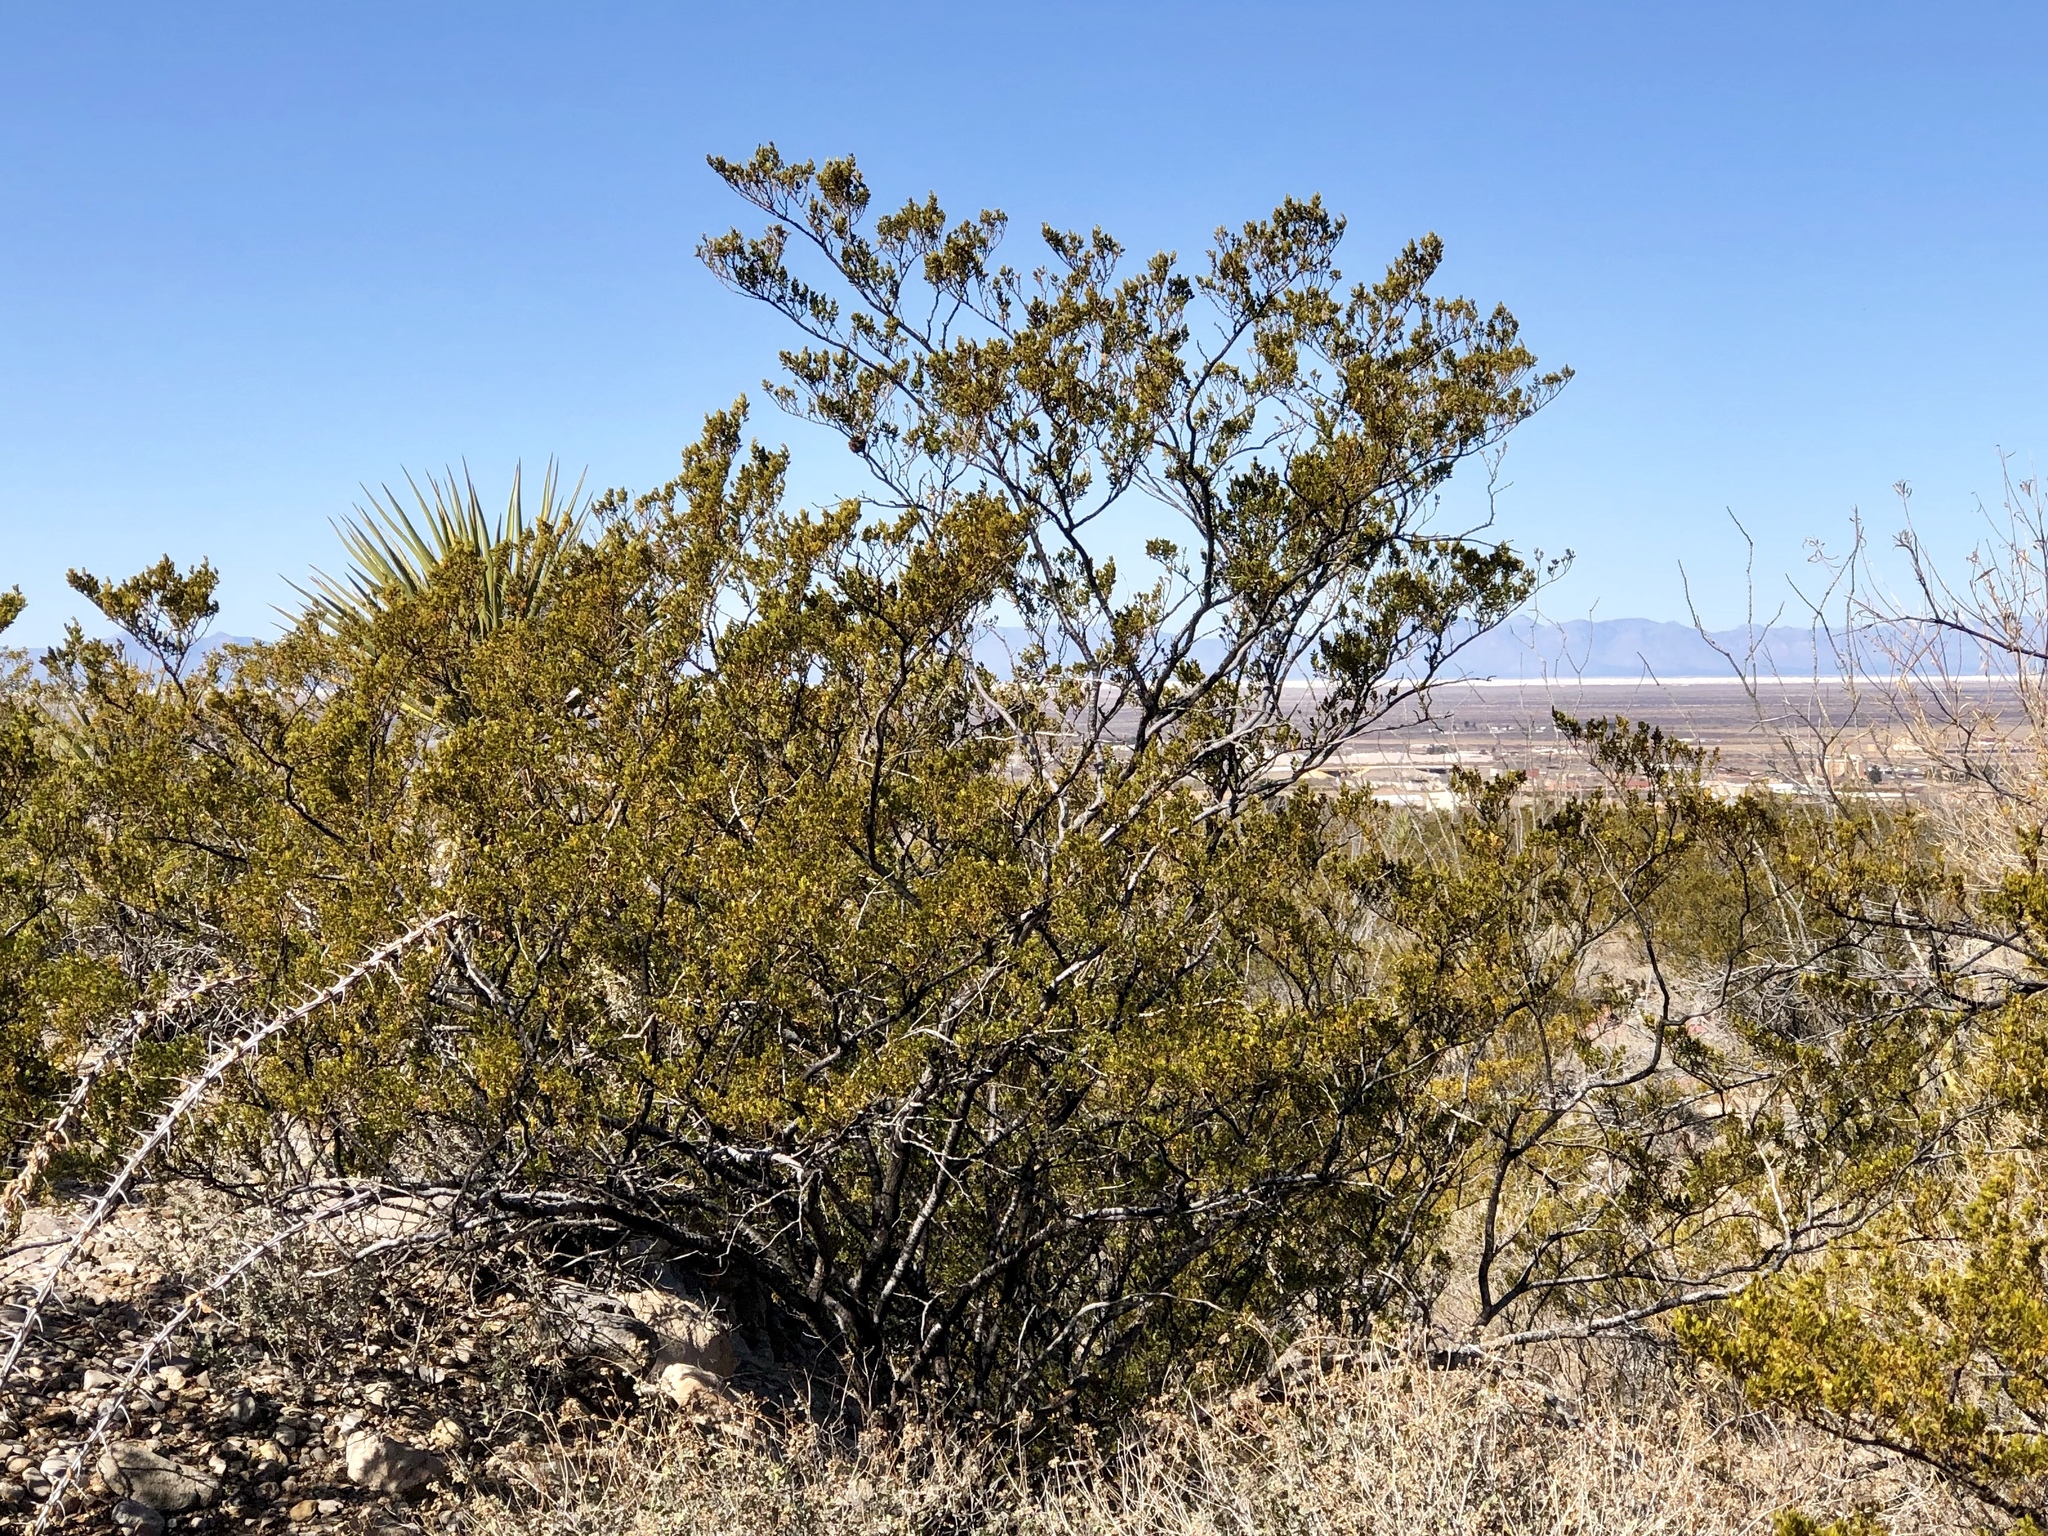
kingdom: Plantae
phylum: Tracheophyta
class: Magnoliopsida
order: Zygophyllales
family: Zygophyllaceae
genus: Larrea
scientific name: Larrea tridentata
